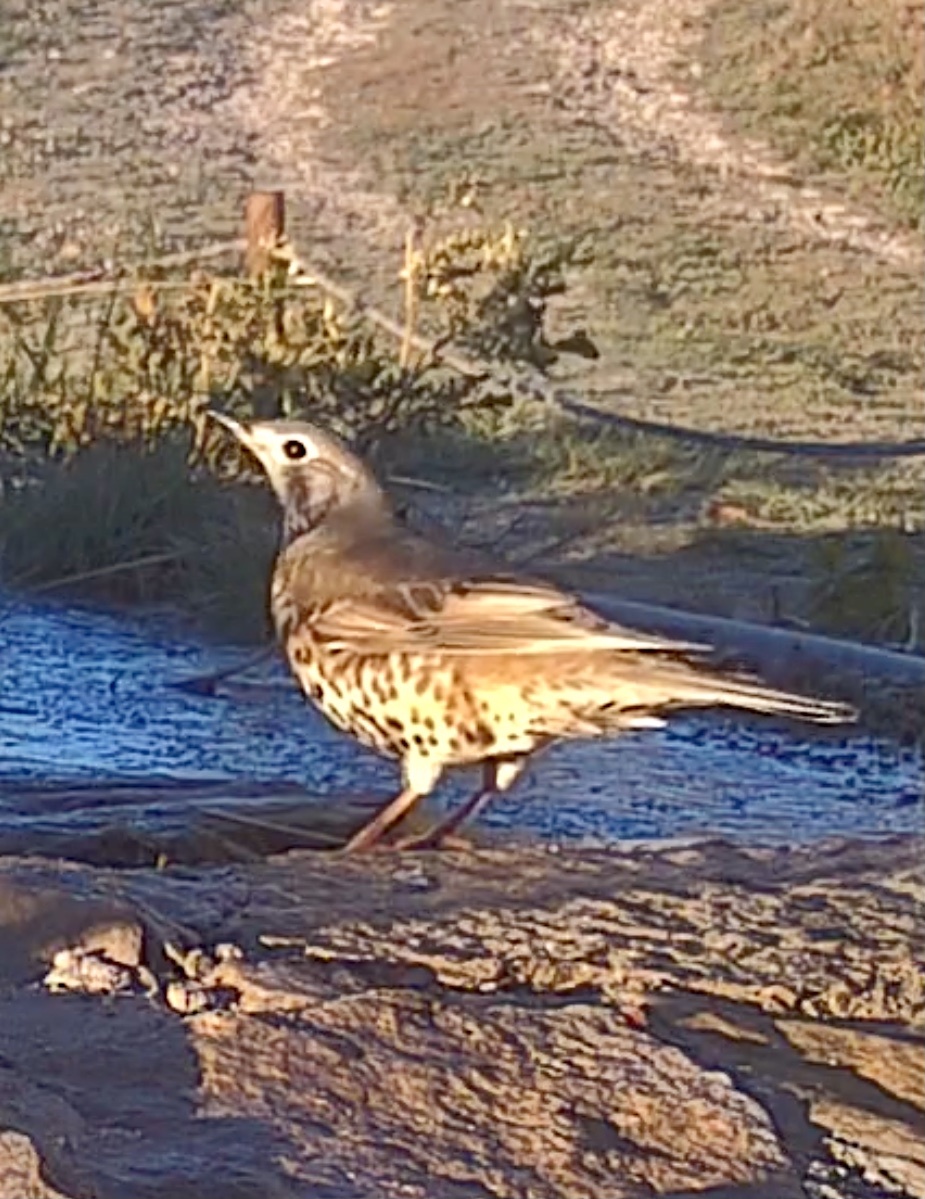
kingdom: Animalia
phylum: Chordata
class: Aves
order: Passeriformes
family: Turdidae
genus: Turdus
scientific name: Turdus viscivorus
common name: Mistle thrush
